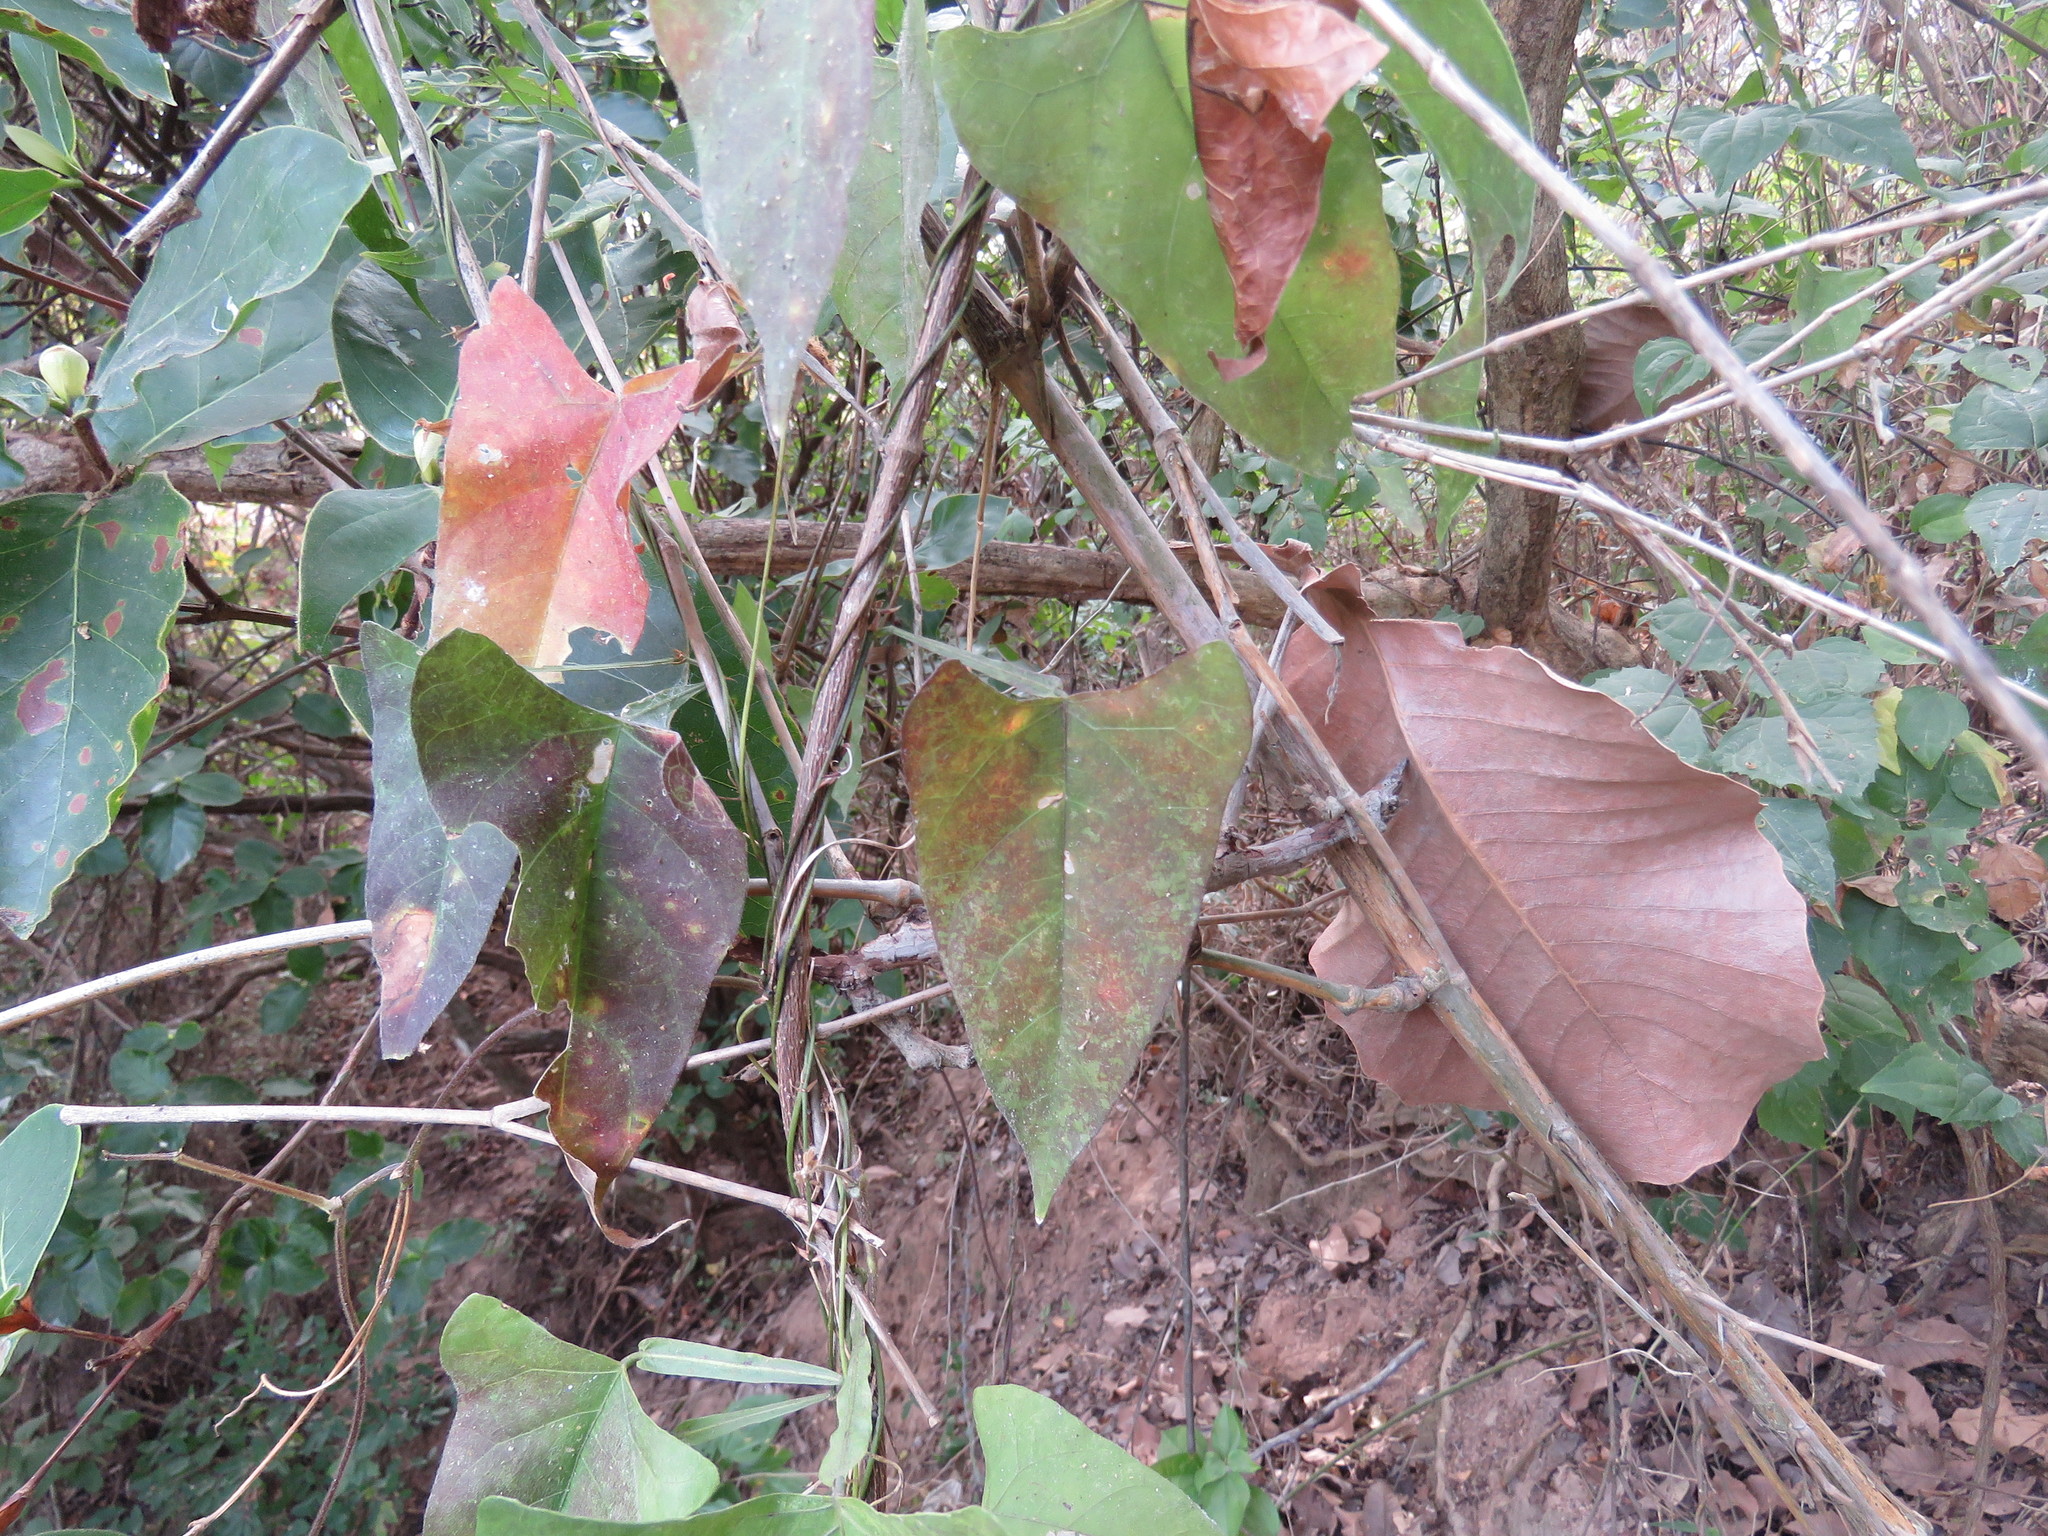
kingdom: Plantae
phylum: Tracheophyta
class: Magnoliopsida
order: Fabales
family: Fabaceae
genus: Centrosema
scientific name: Centrosema sagittatum
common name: Arrowleaf butterfly pea
